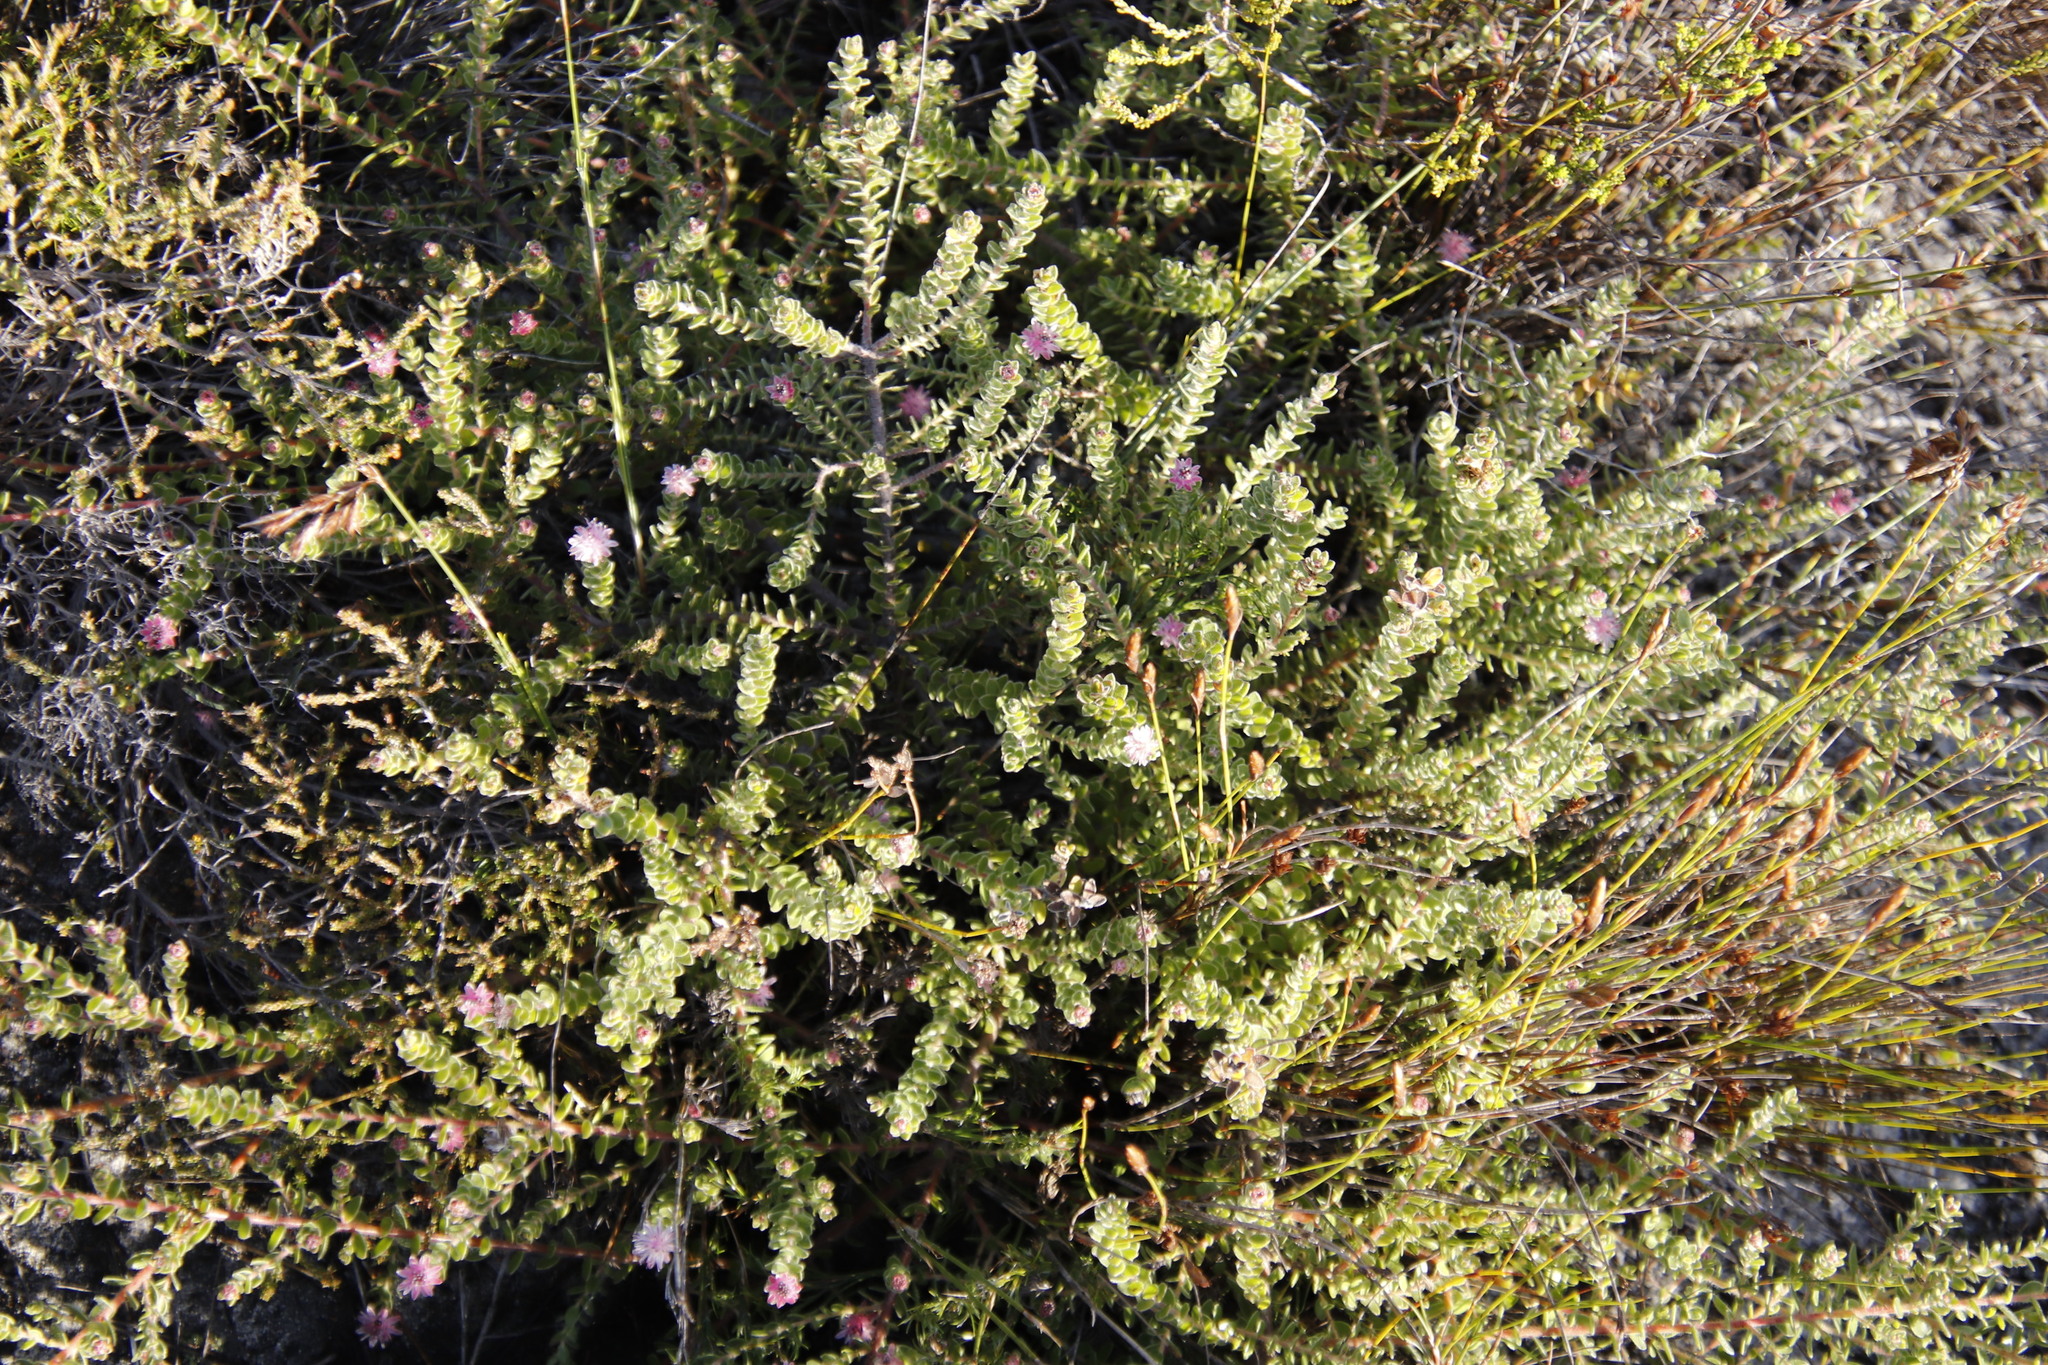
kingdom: Plantae
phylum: Tracheophyta
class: Magnoliopsida
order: Proteales
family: Proteaceae
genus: Diastella
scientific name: Diastella divaricata
